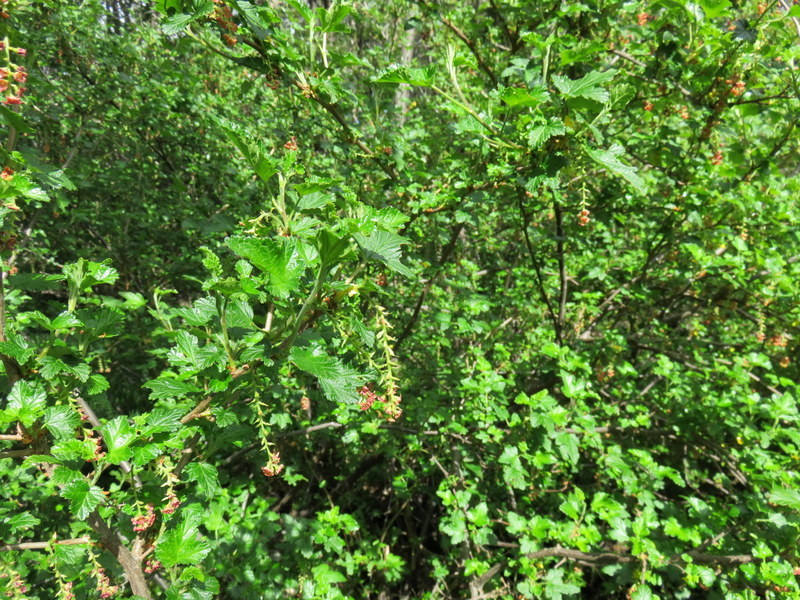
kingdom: Plantae
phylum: Tracheophyta
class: Magnoliopsida
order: Saxifragales
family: Grossulariaceae
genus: Ribes
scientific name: Ribes magellanicum
